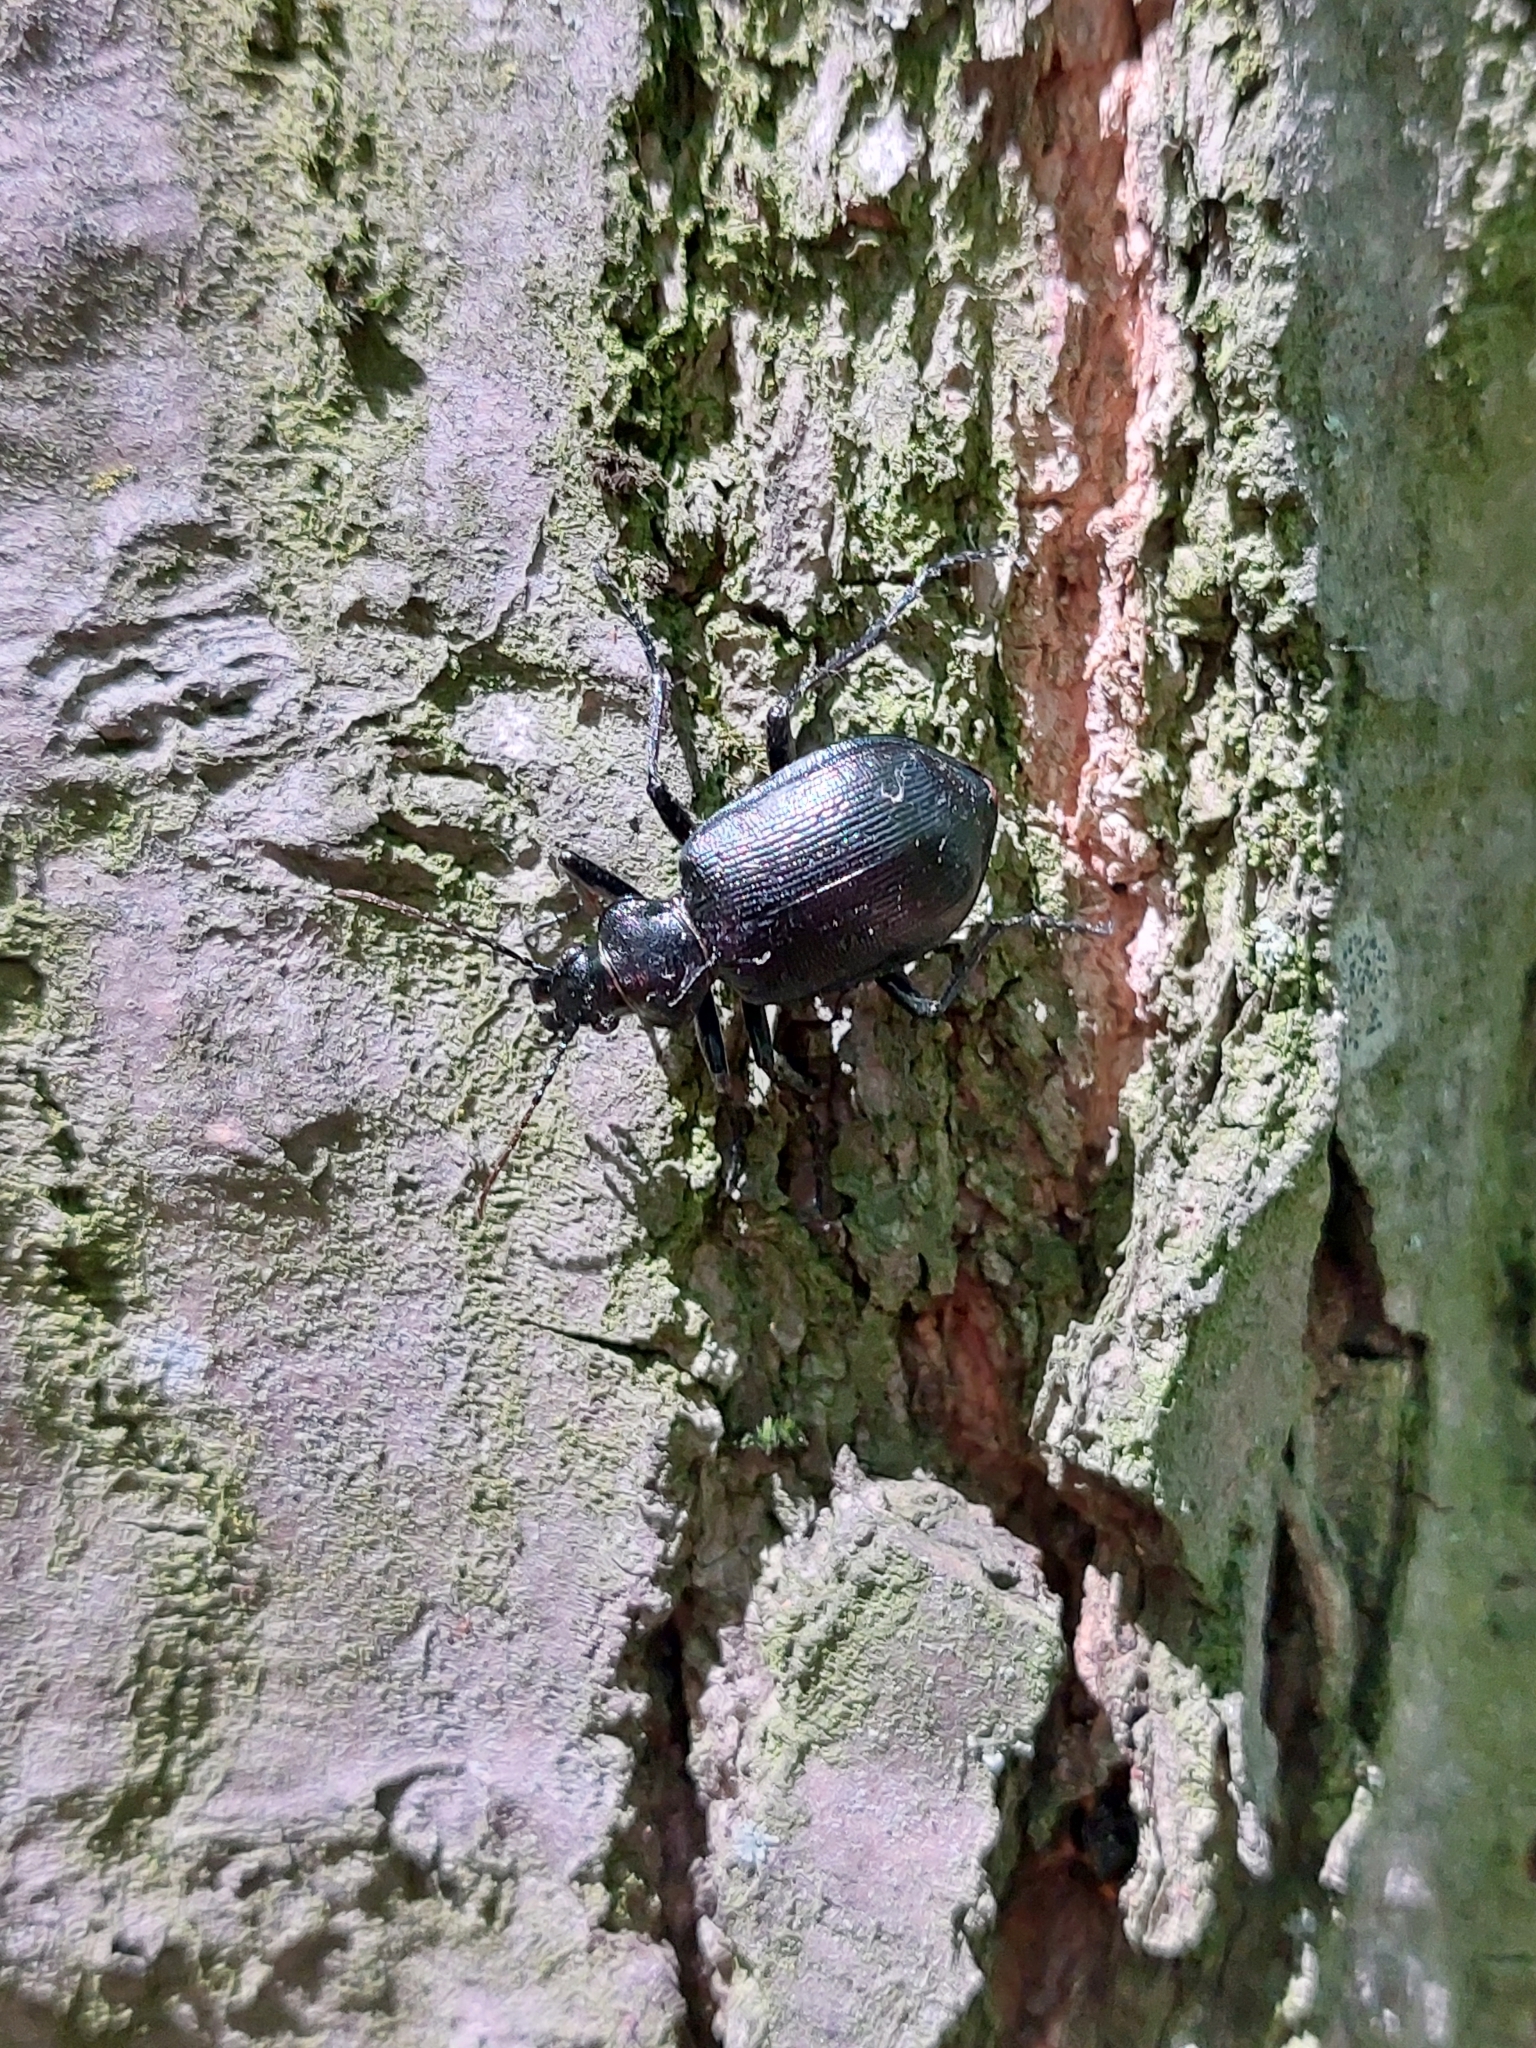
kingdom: Animalia
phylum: Arthropoda
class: Insecta
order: Coleoptera
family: Carabidae
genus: Calosoma
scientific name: Calosoma inquisitor
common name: Caterpillar-hunter
